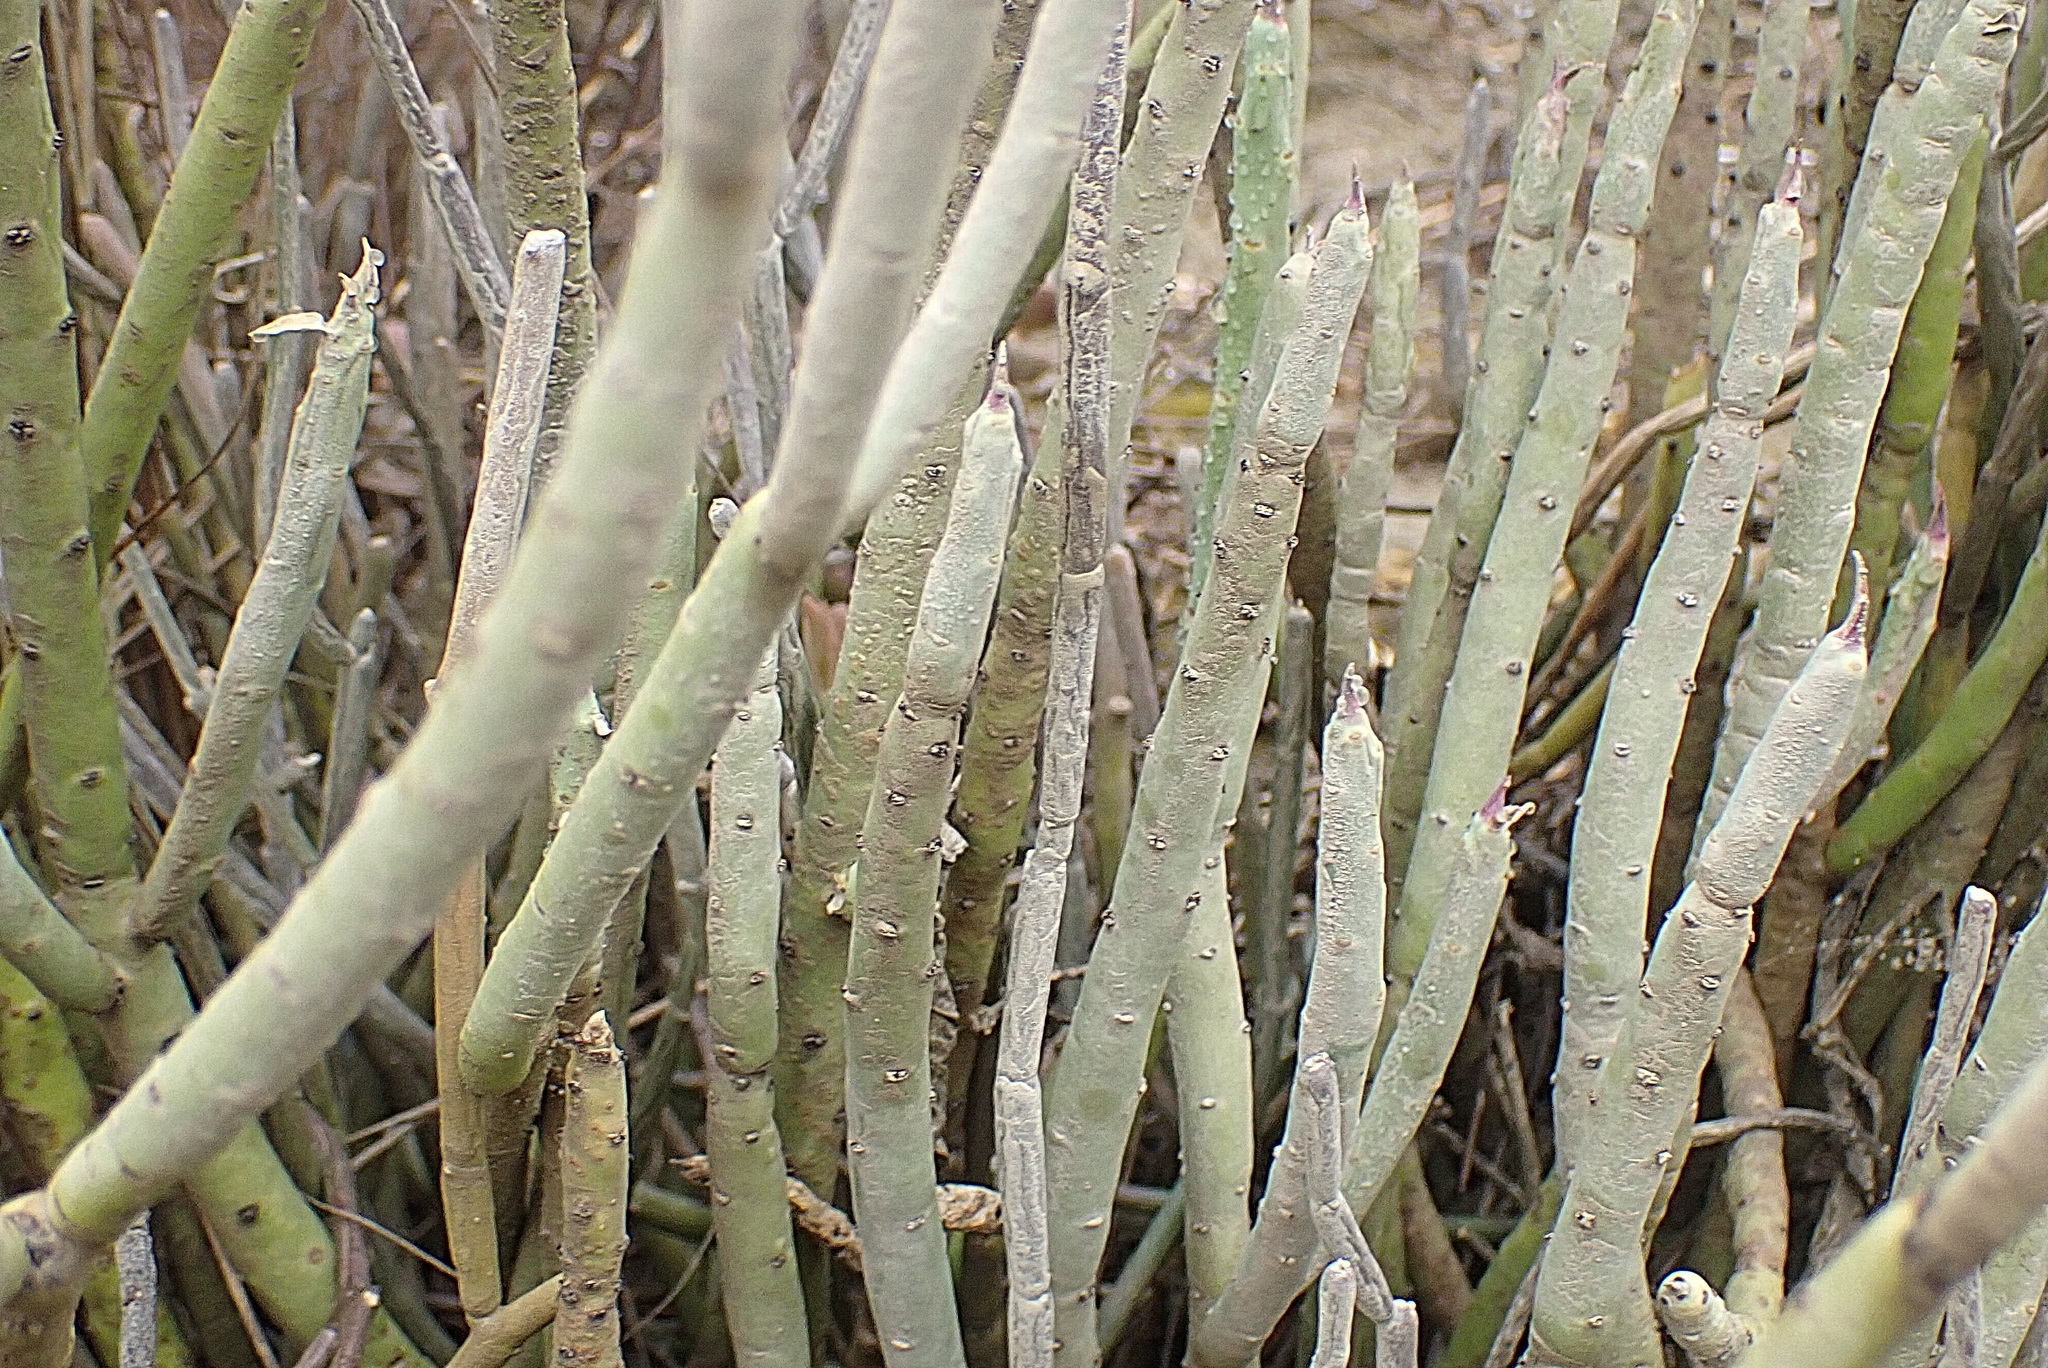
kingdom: Plantae
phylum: Tracheophyta
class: Magnoliopsida
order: Malpighiales
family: Euphorbiaceae
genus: Euphorbia
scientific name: Euphorbia mauritanica
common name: Jackal's-food
